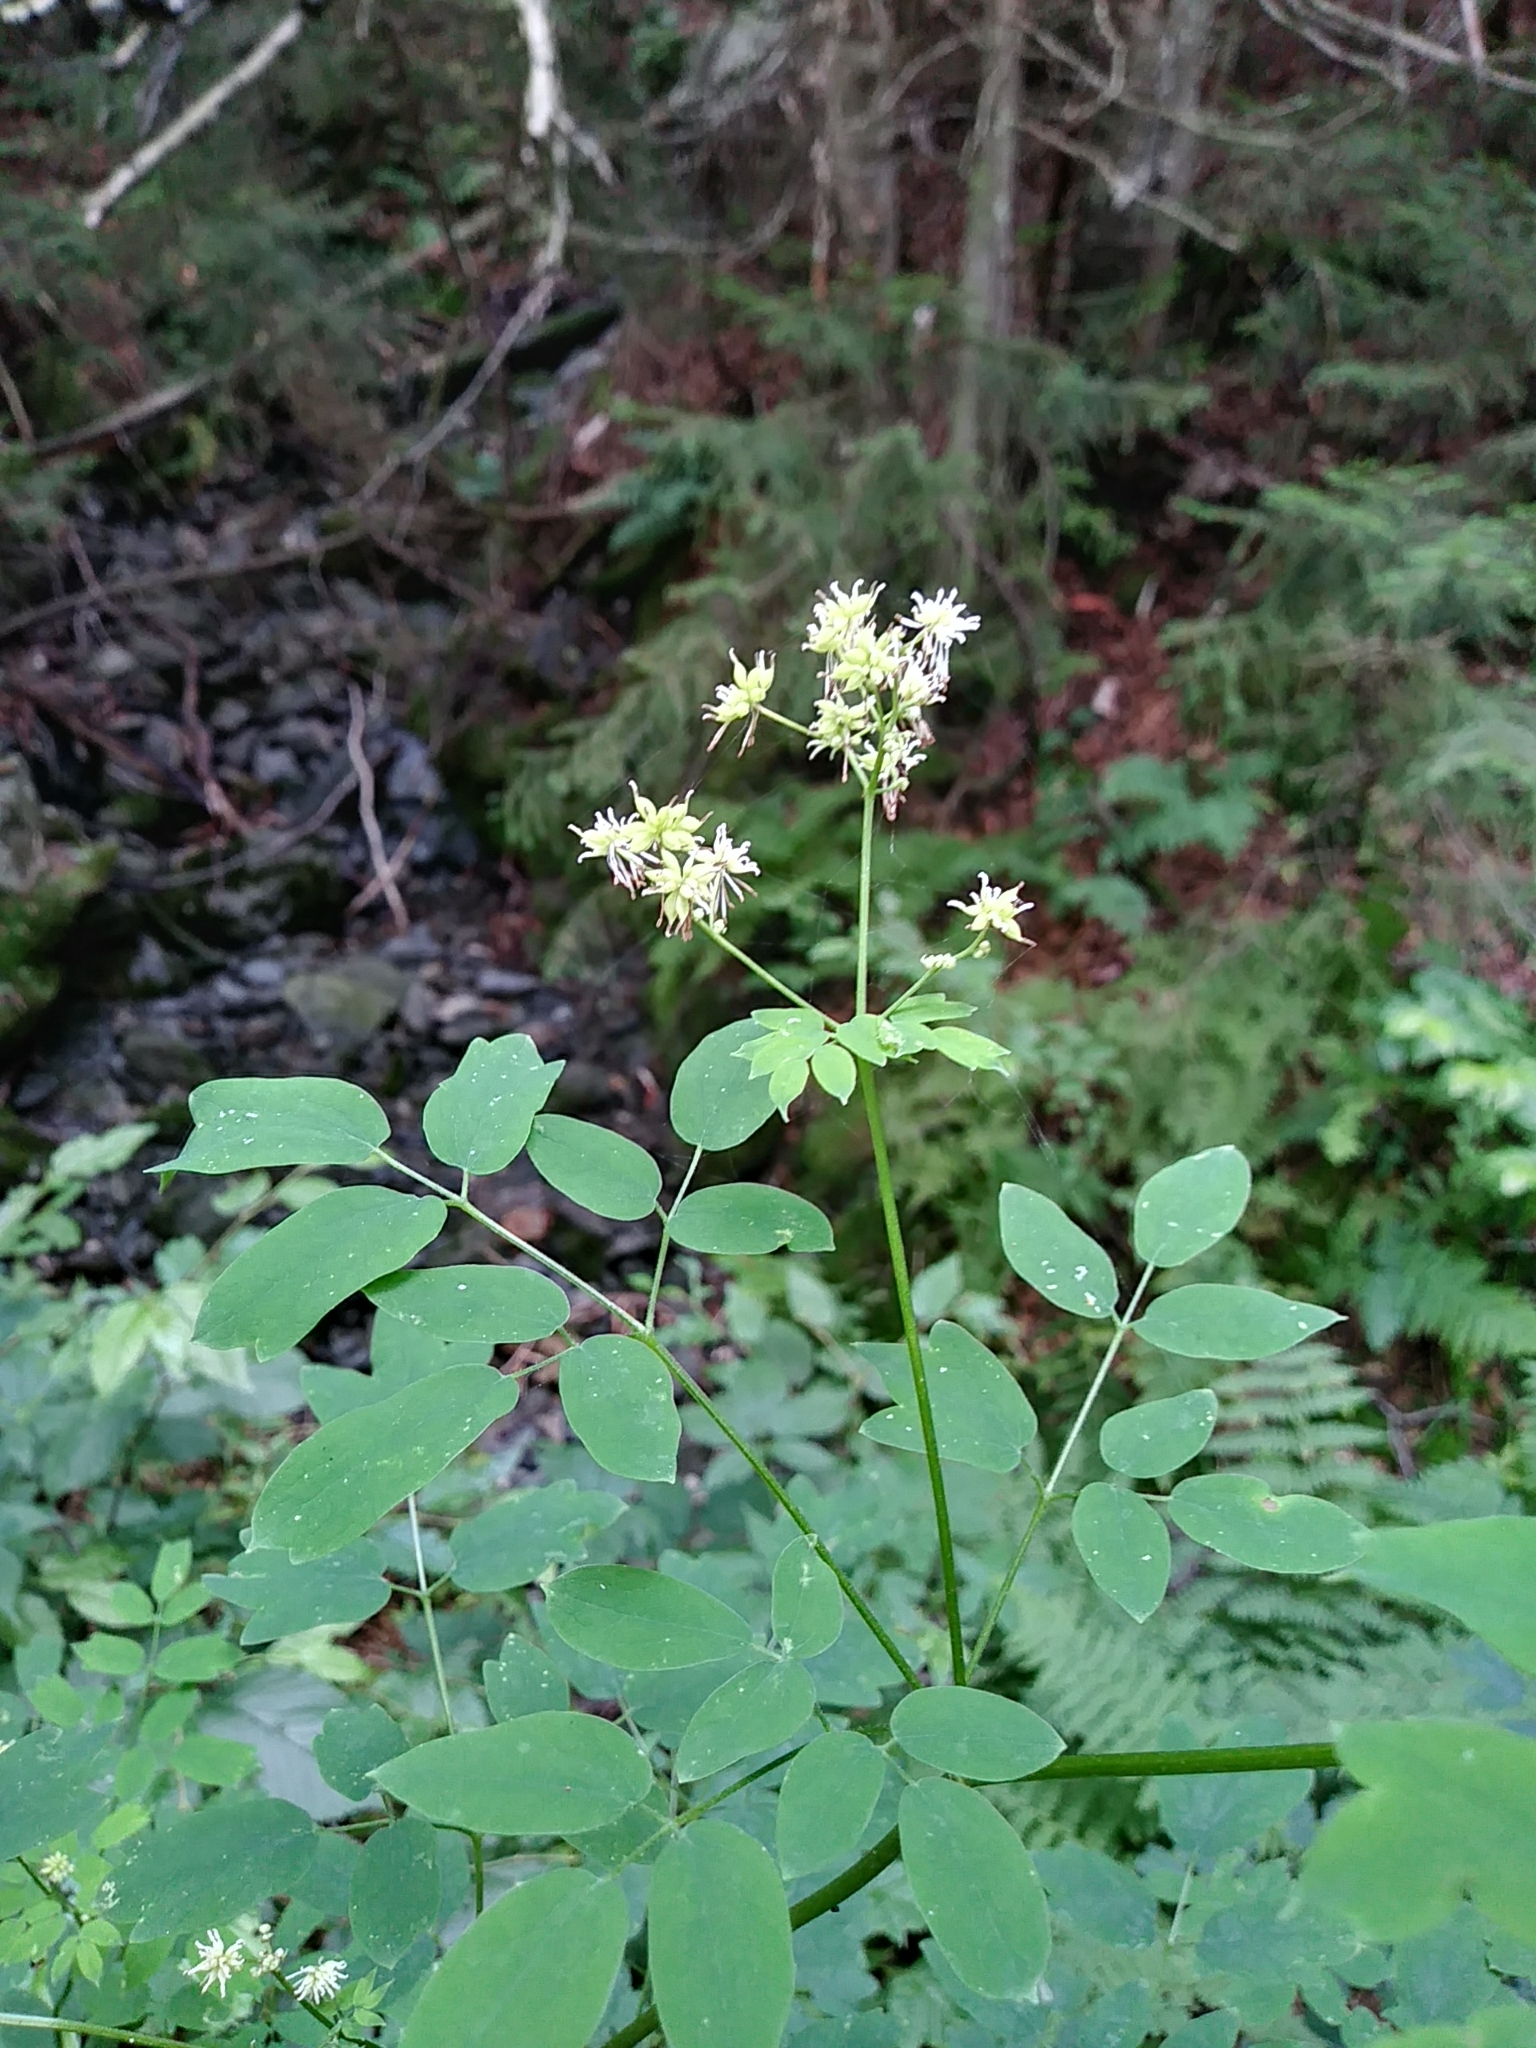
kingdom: Plantae
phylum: Tracheophyta
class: Magnoliopsida
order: Ranunculales
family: Ranunculaceae
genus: Thalictrum
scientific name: Thalictrum pubescens
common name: King-of-the-meadow
